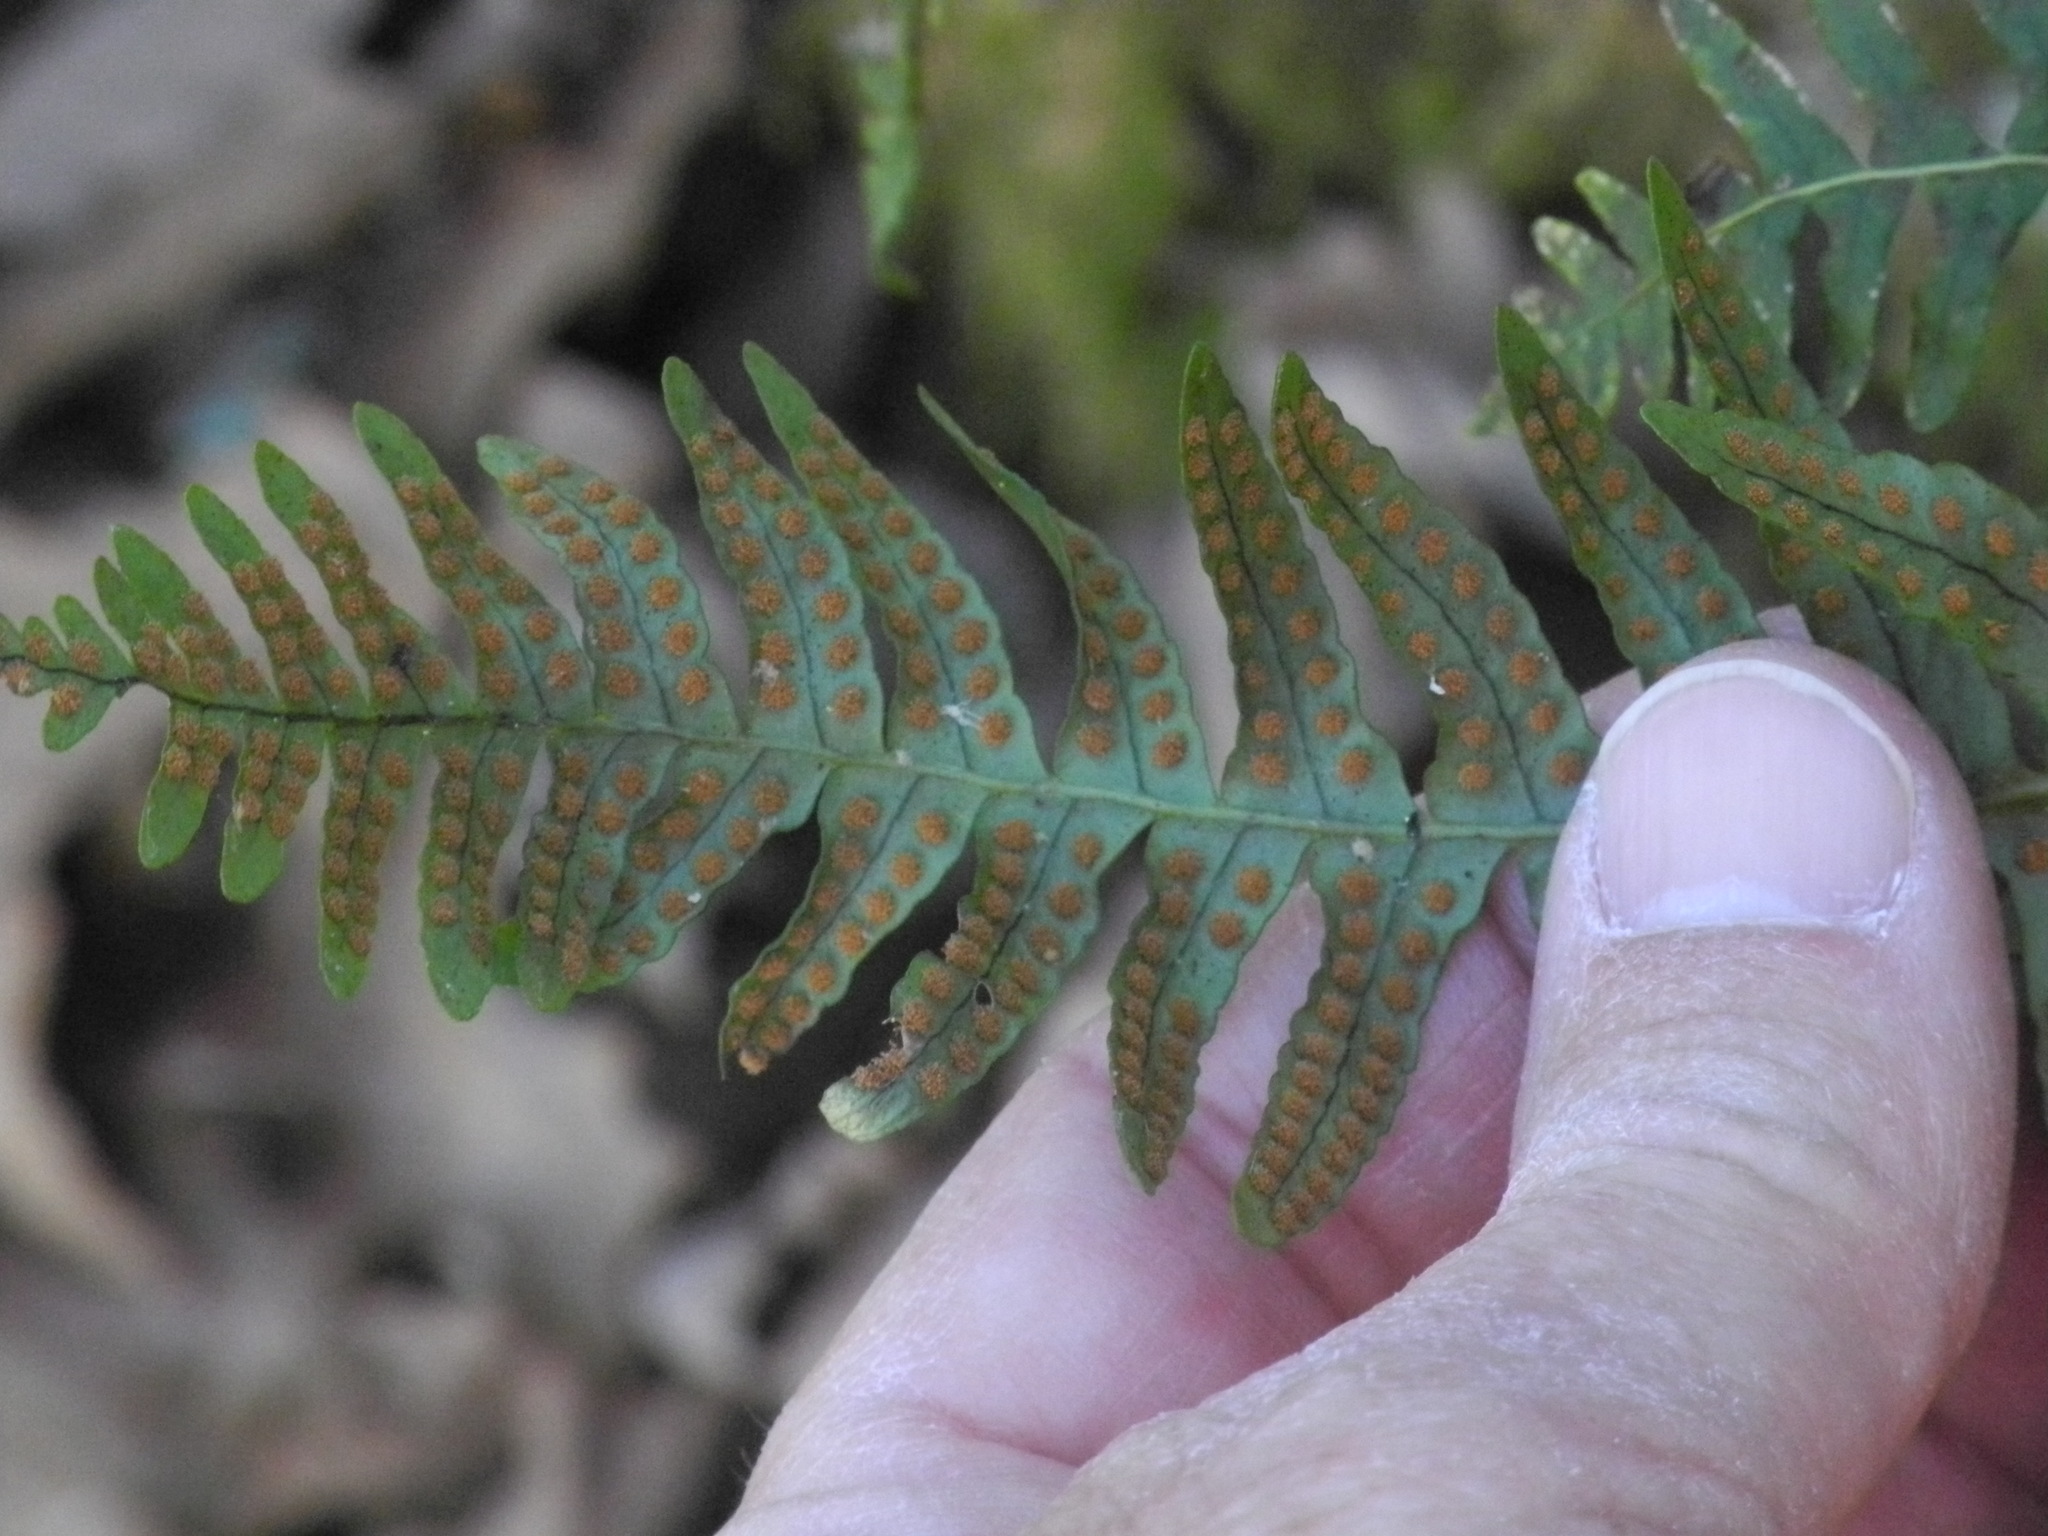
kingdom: Plantae
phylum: Tracheophyta
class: Polypodiopsida
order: Polypodiales
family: Polypodiaceae
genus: Polypodium
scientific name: Polypodium virginianum
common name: American wall fern
